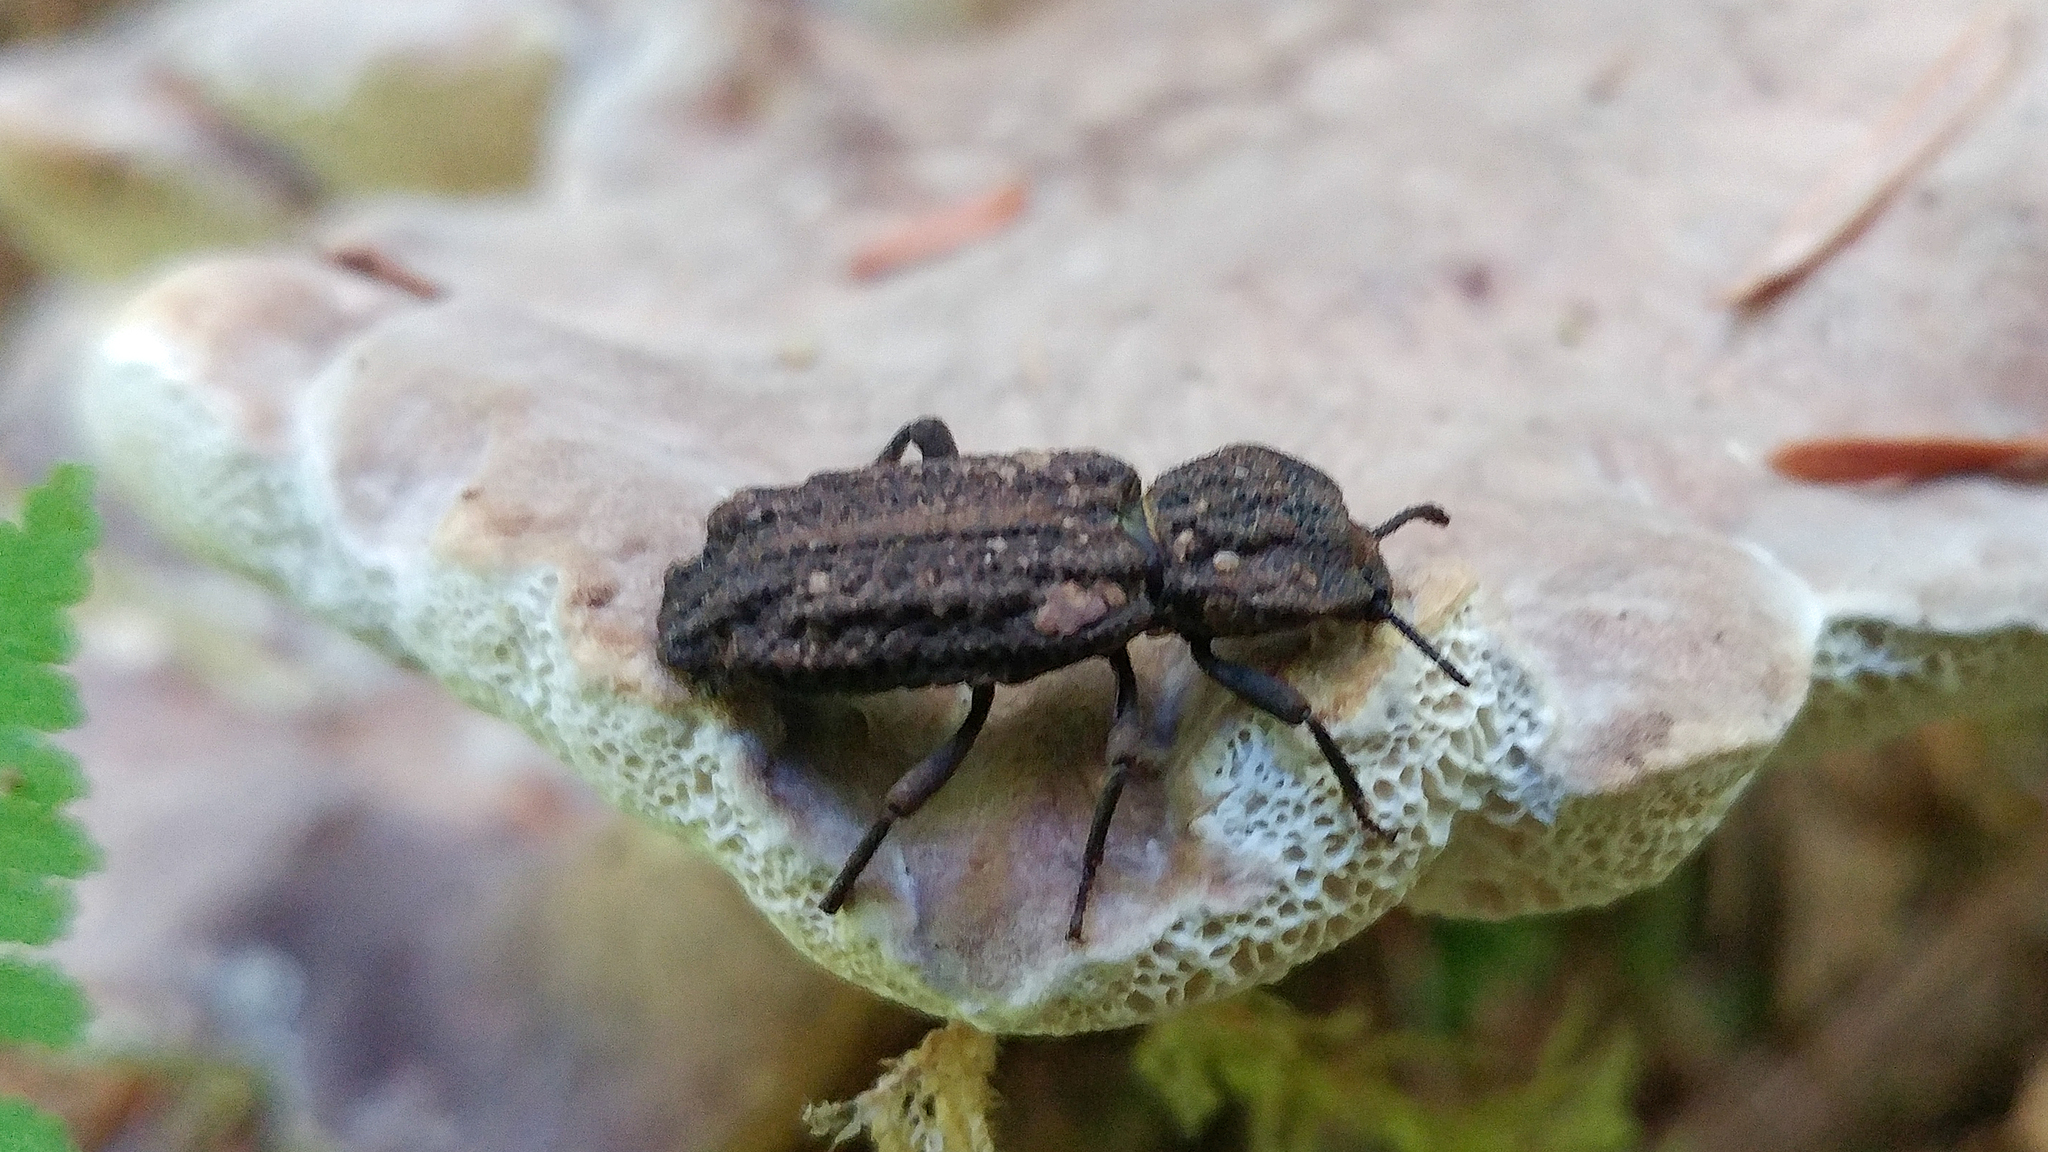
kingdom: Animalia
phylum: Arthropoda
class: Insecta
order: Coleoptera
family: Zopheridae
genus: Phellopsis
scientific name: Phellopsis porcata
